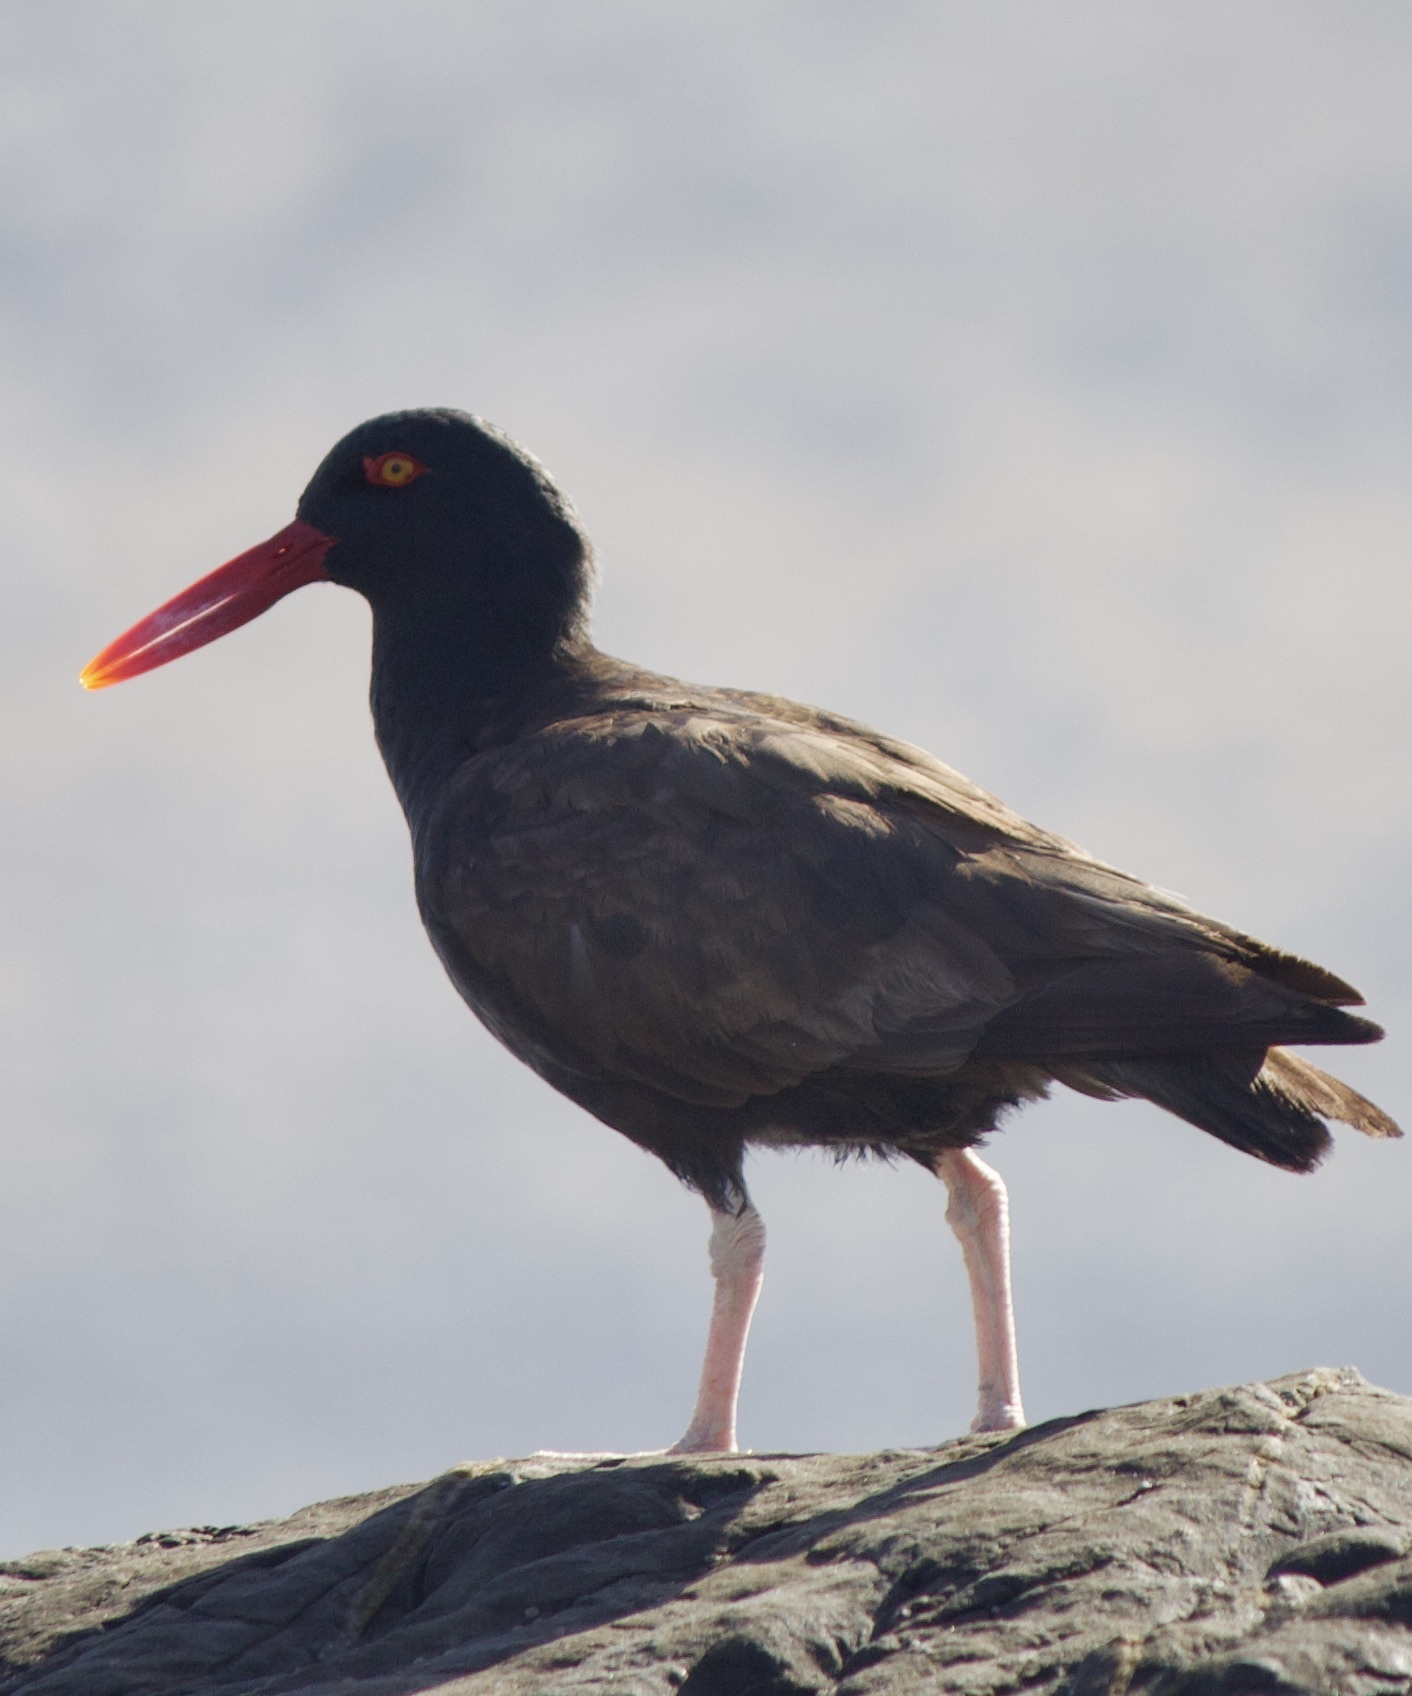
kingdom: Animalia
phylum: Chordata
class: Aves
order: Charadriiformes
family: Haematopodidae
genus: Haematopus
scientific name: Haematopus ater
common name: Blackish oystercatcher
